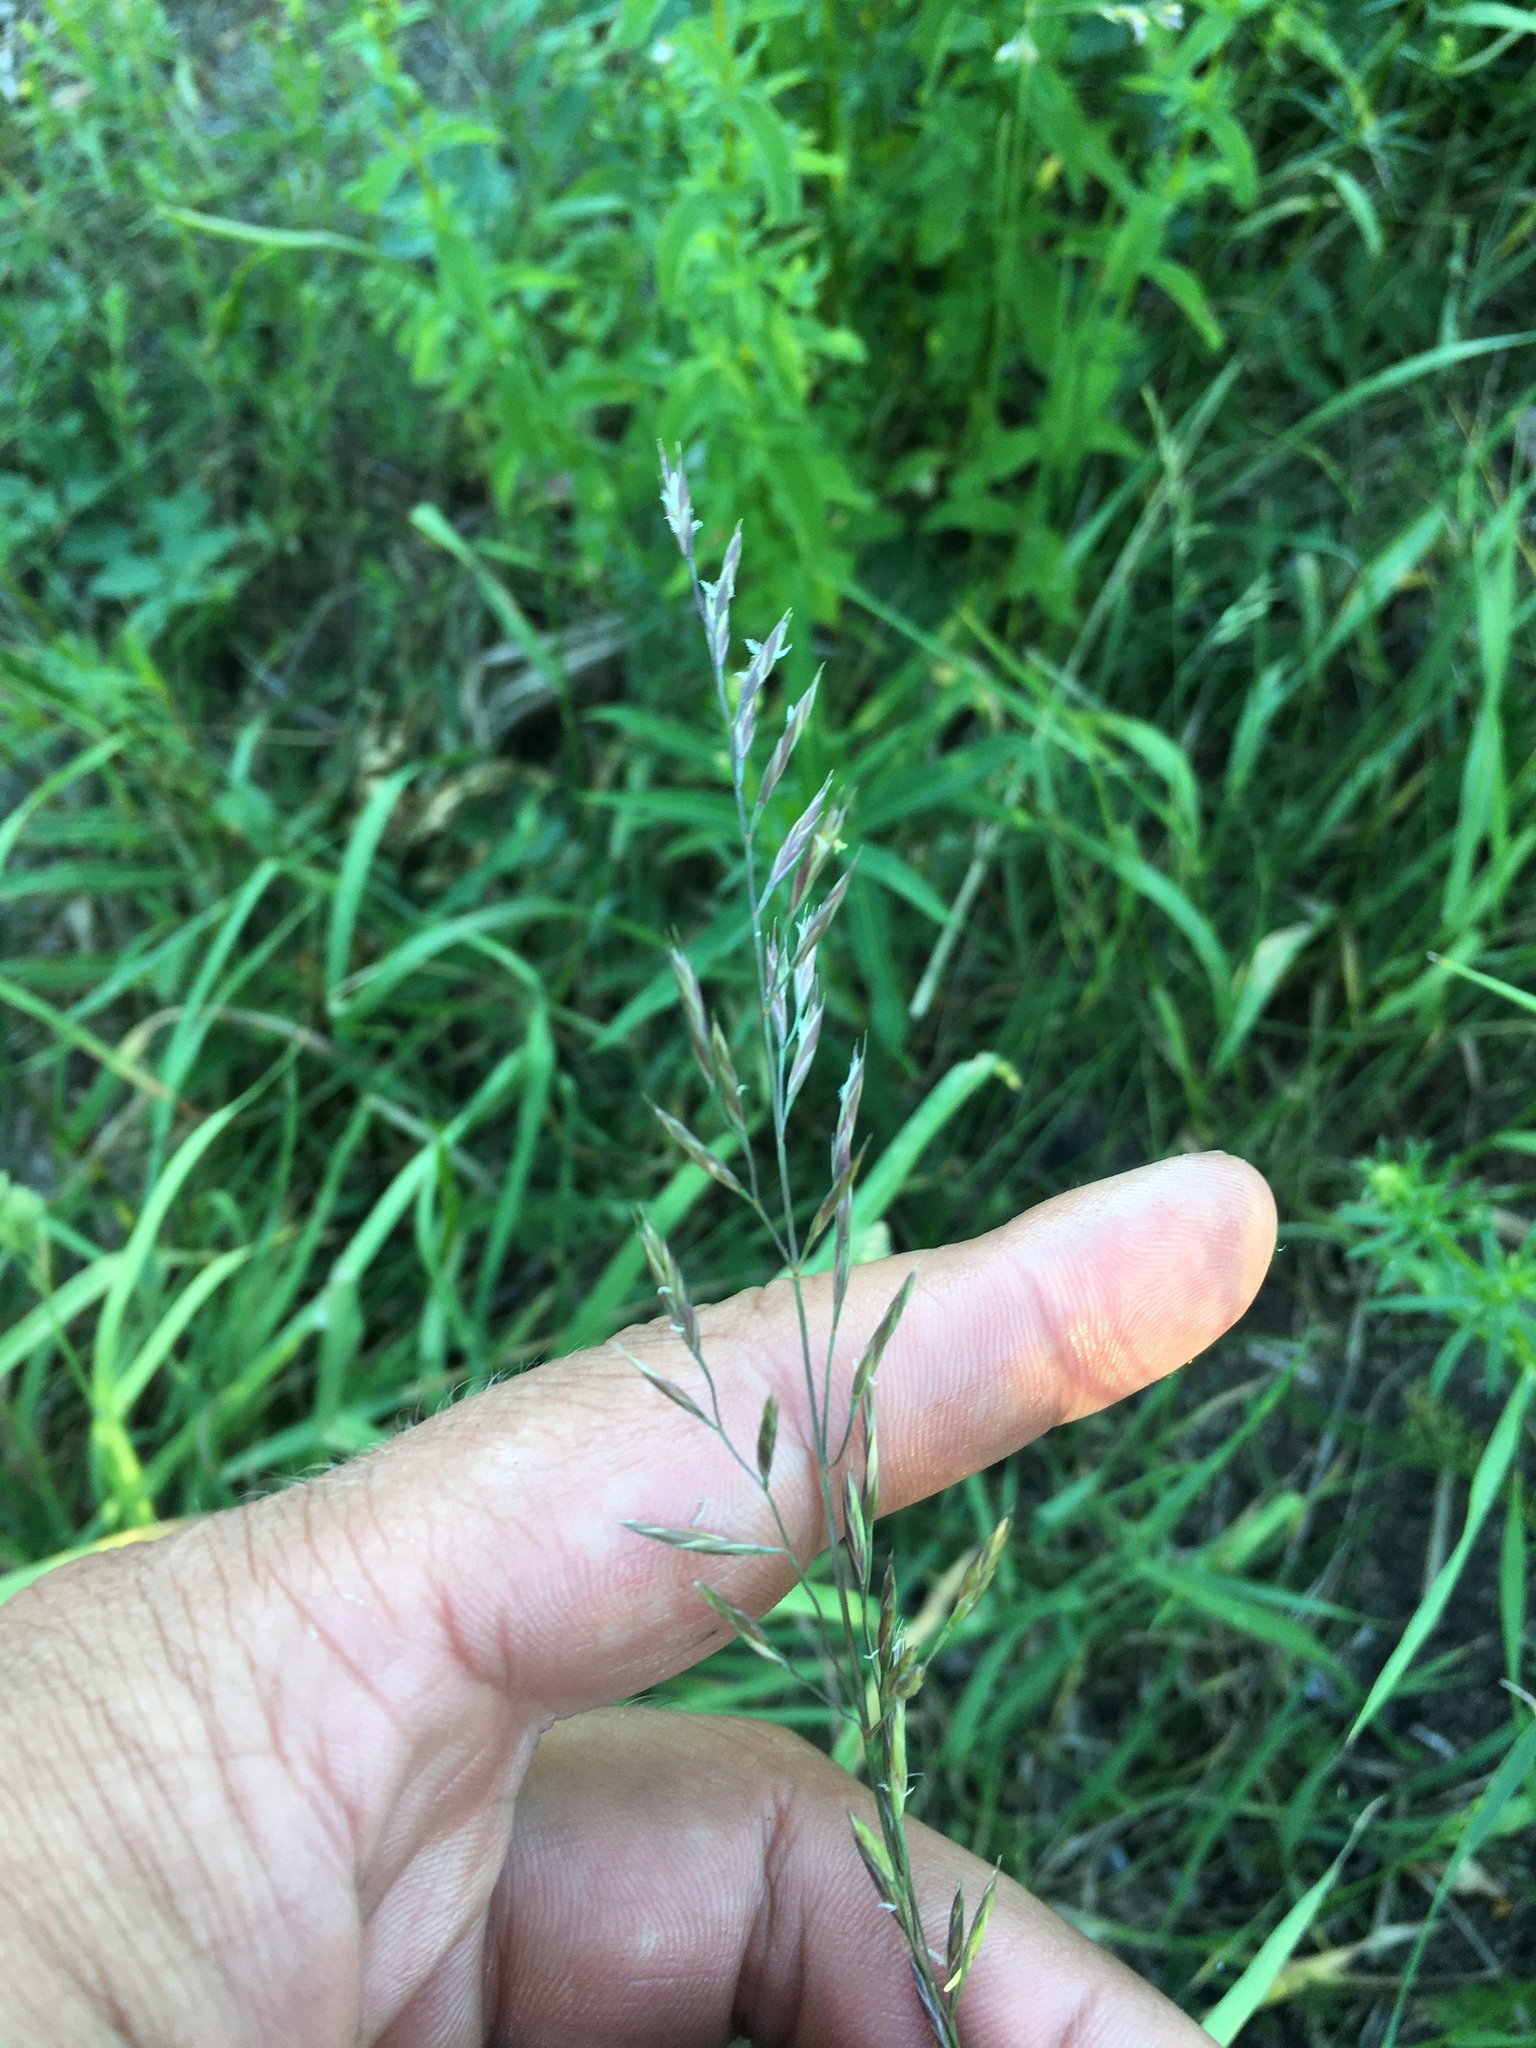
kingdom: Plantae
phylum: Tracheophyta
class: Liliopsida
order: Poales
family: Poaceae
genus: Lolium
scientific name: Lolium pratense
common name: Dover grass
